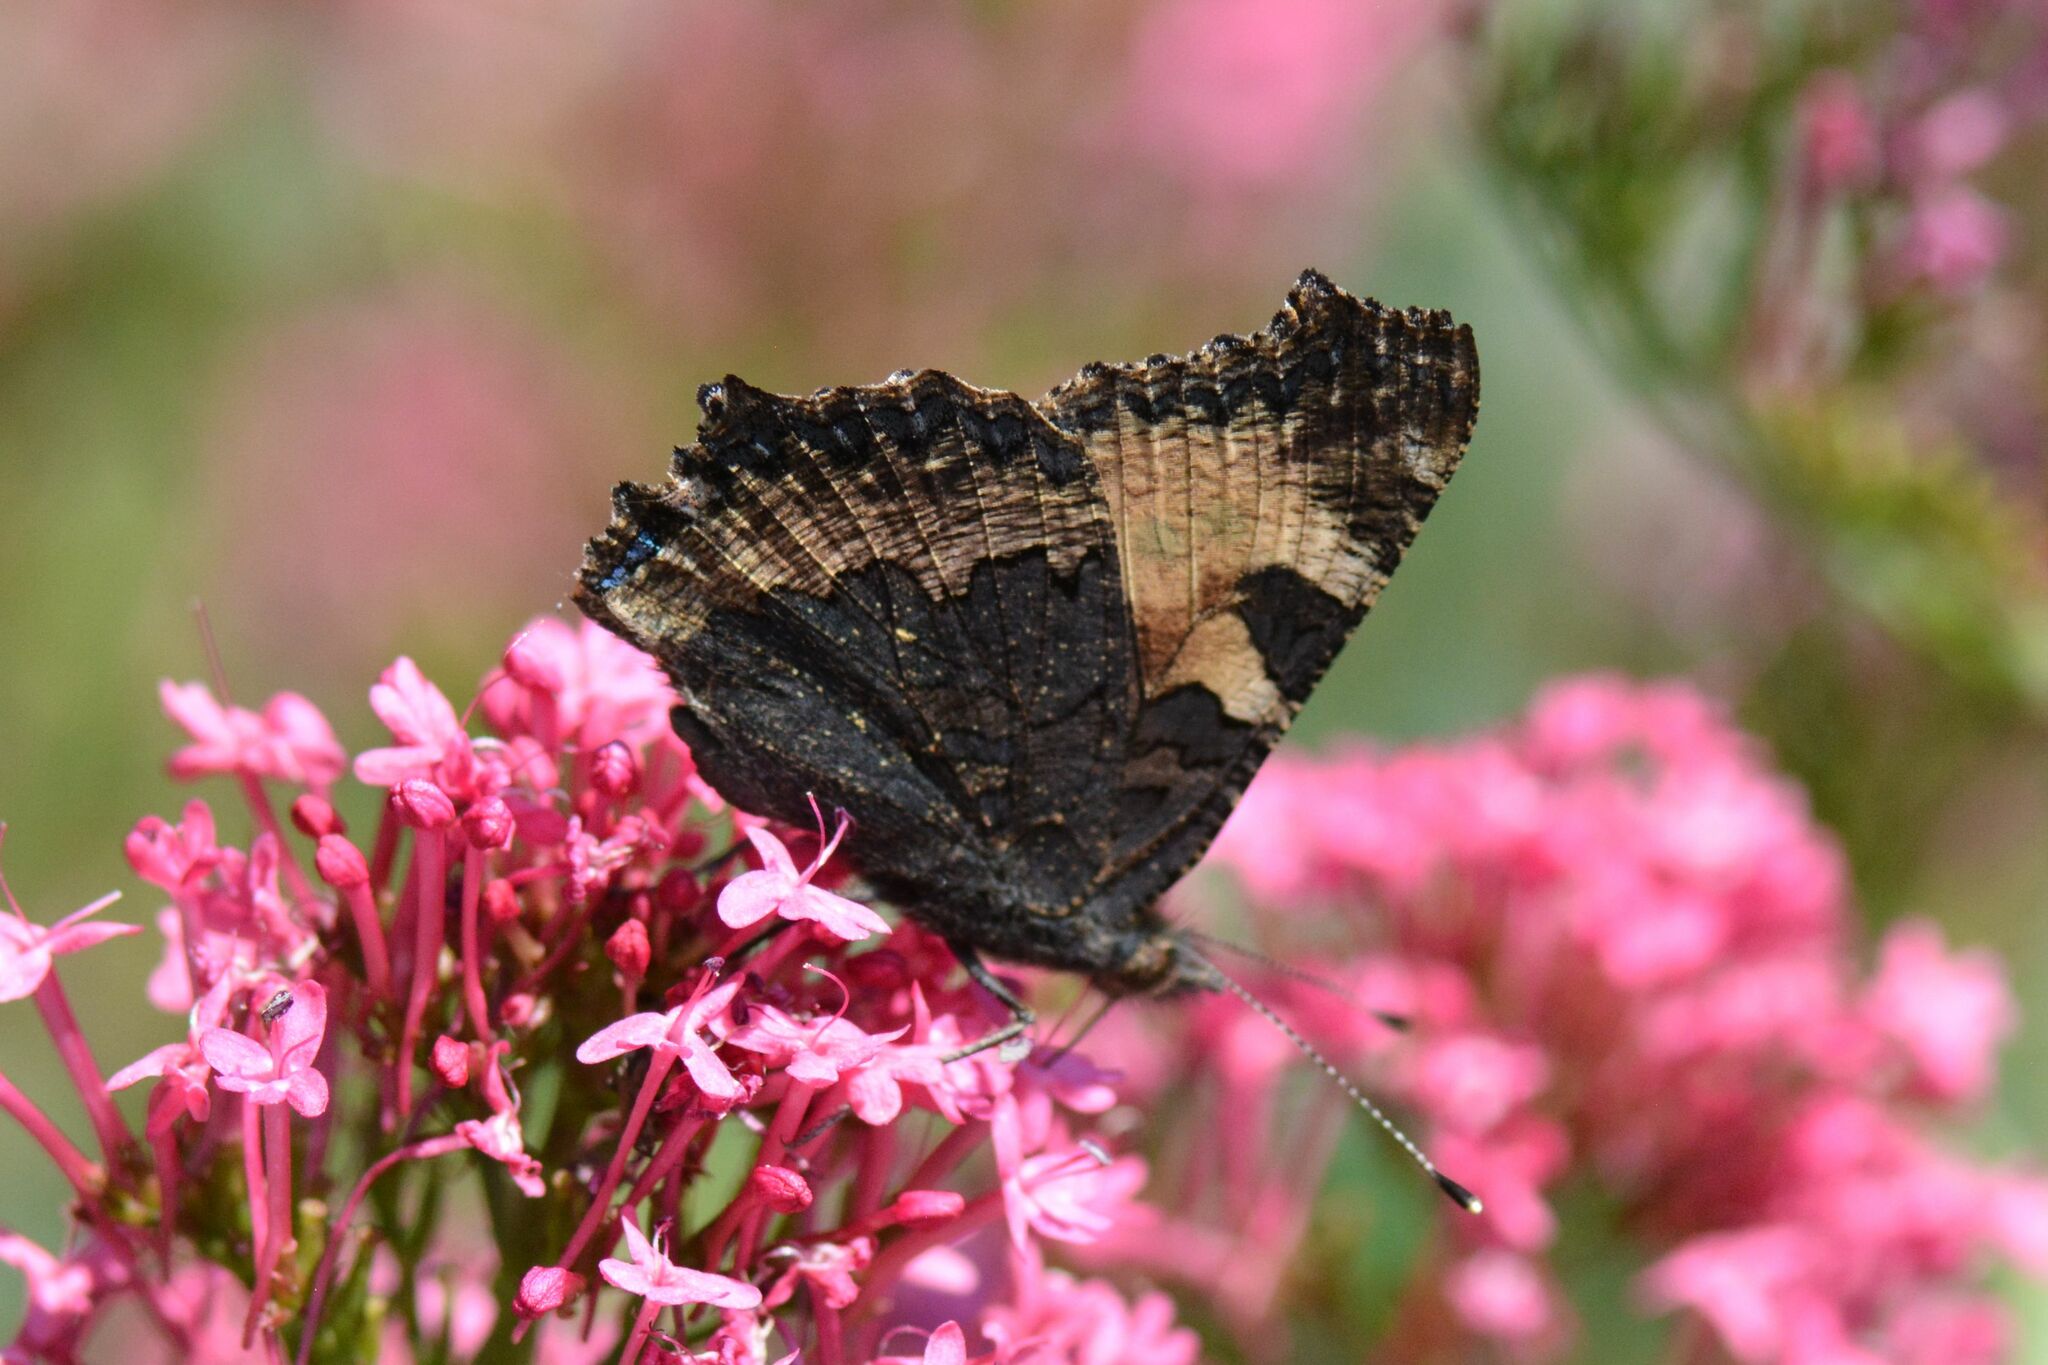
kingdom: Animalia
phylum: Arthropoda
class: Insecta
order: Lepidoptera
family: Nymphalidae
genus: Aglais
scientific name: Aglais urticae
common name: Small tortoiseshell
